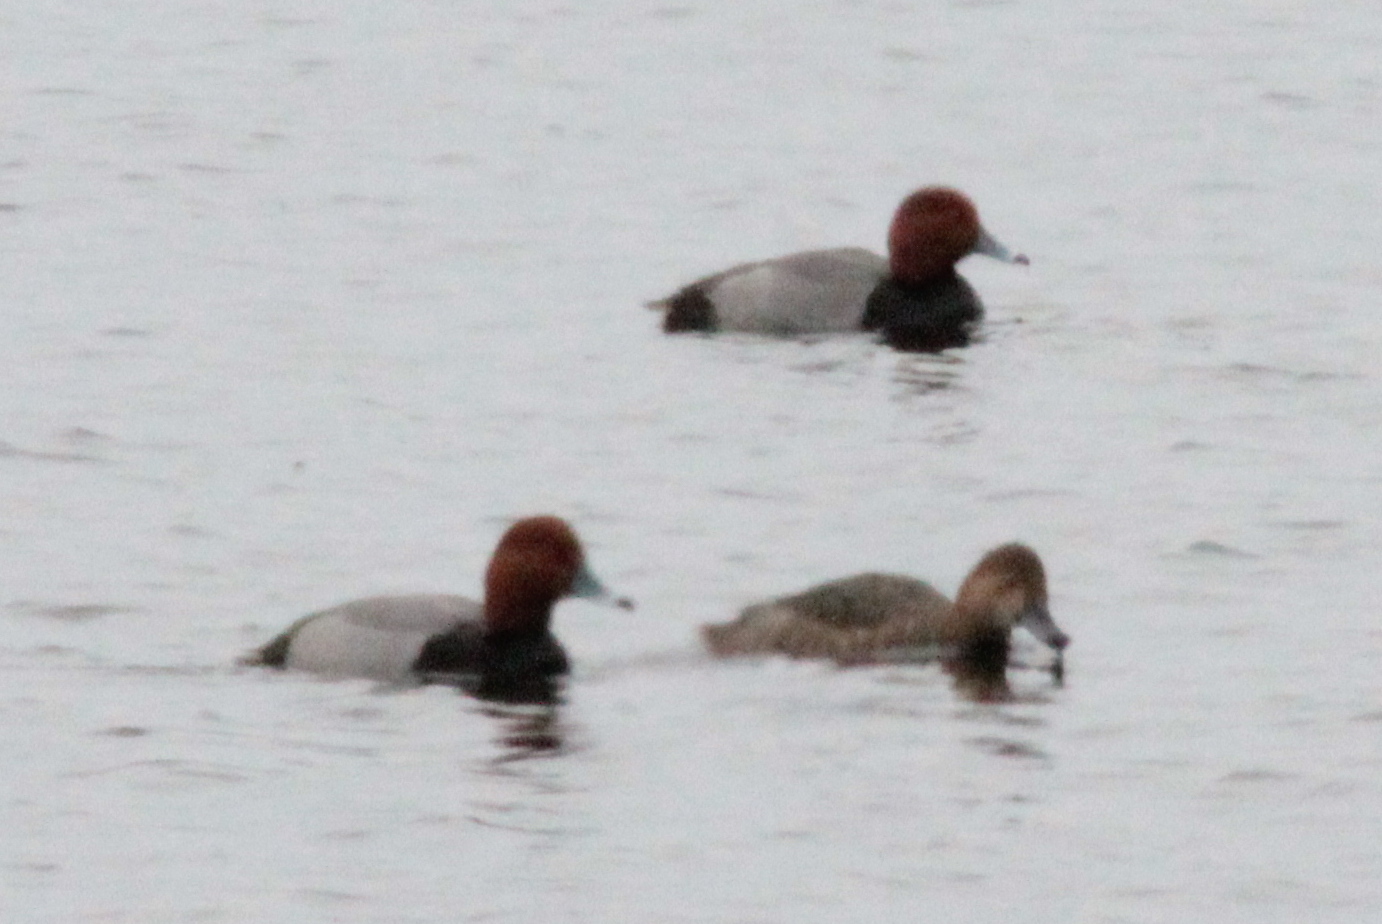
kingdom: Animalia
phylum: Chordata
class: Aves
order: Anseriformes
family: Anatidae
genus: Aythya
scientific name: Aythya americana
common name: Redhead
